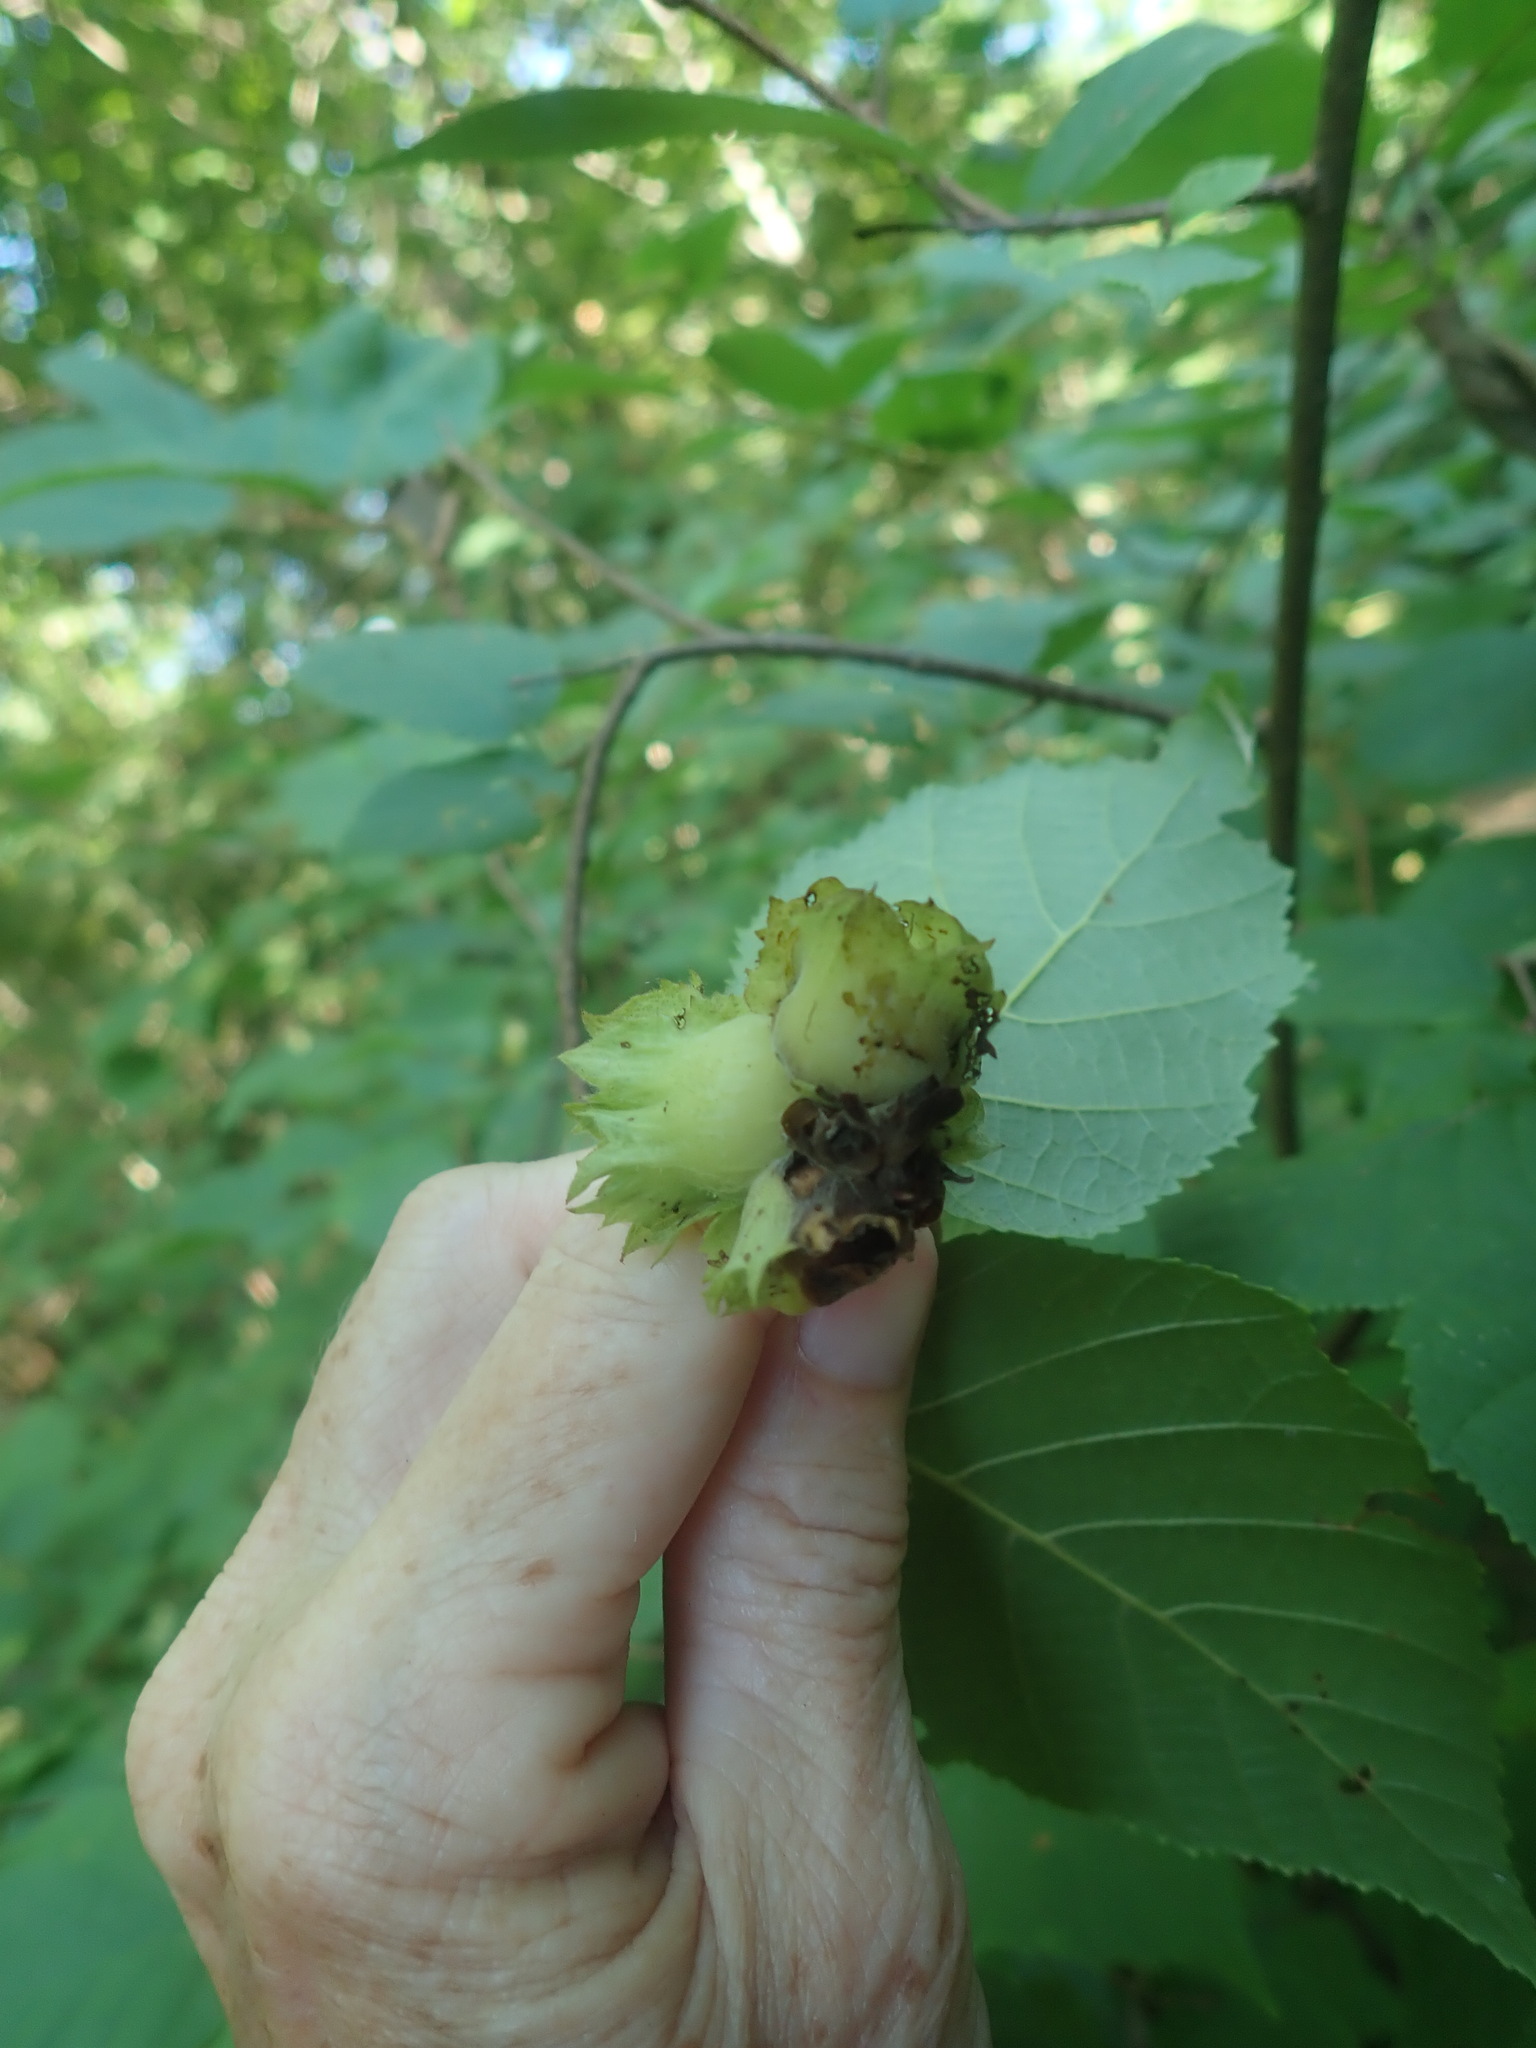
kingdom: Plantae
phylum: Tracheophyta
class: Magnoliopsida
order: Fagales
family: Betulaceae
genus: Corylus
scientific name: Corylus americana
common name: American hazel
